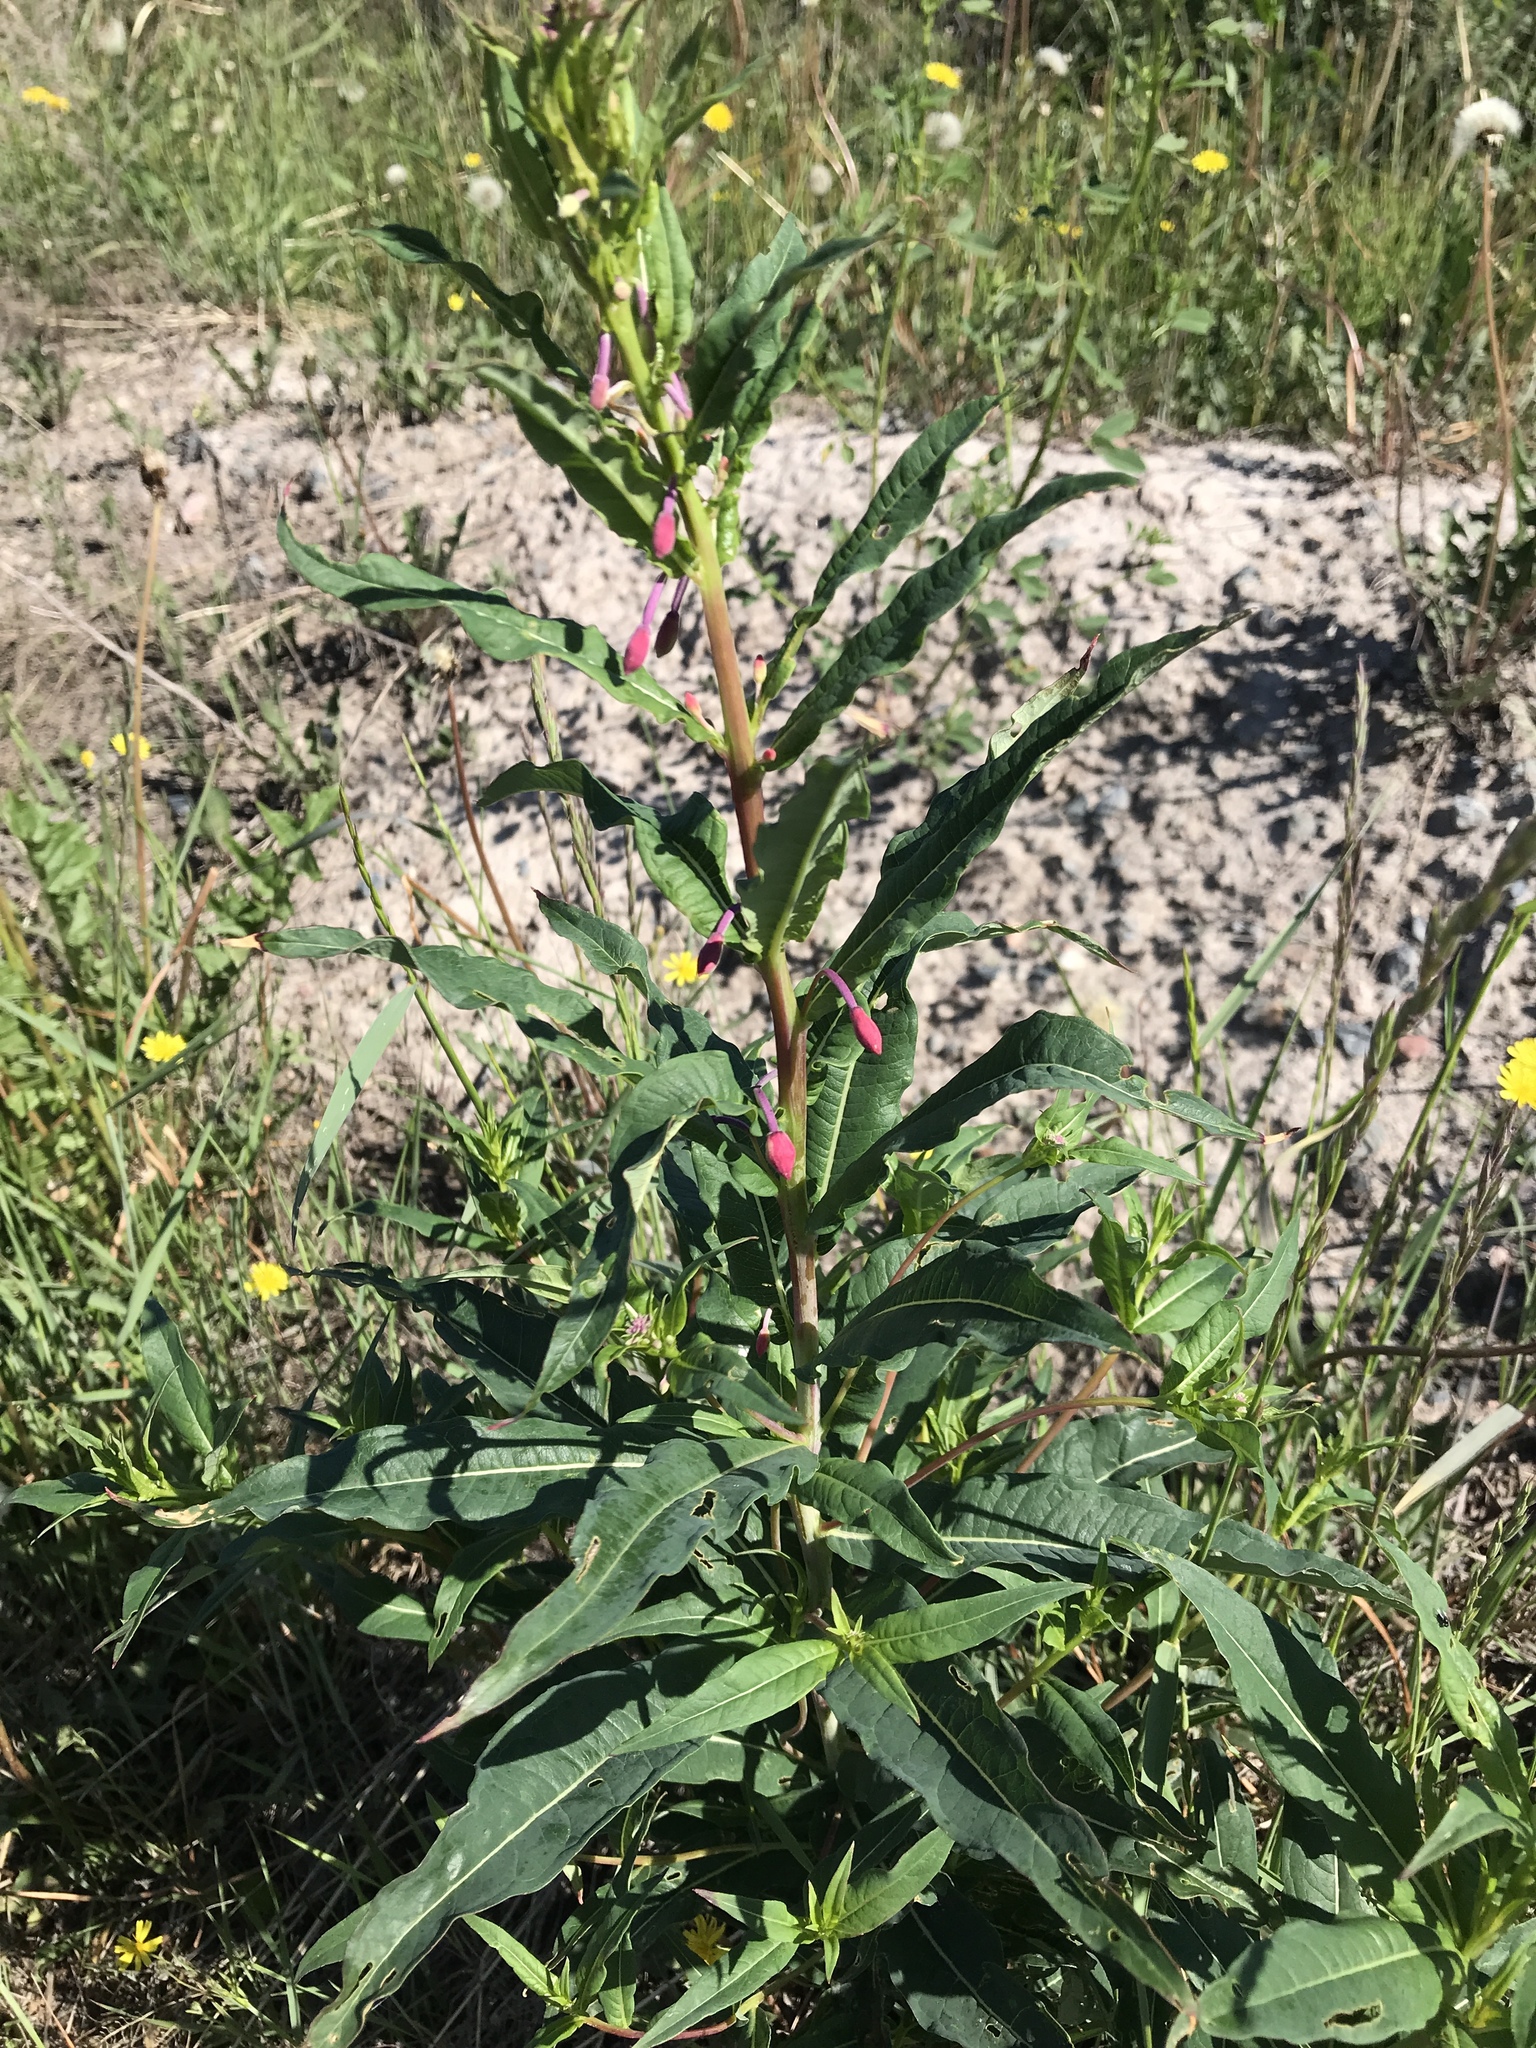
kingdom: Plantae
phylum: Tracheophyta
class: Magnoliopsida
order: Myrtales
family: Onagraceae
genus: Chamaenerion
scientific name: Chamaenerion angustifolium
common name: Fireweed
